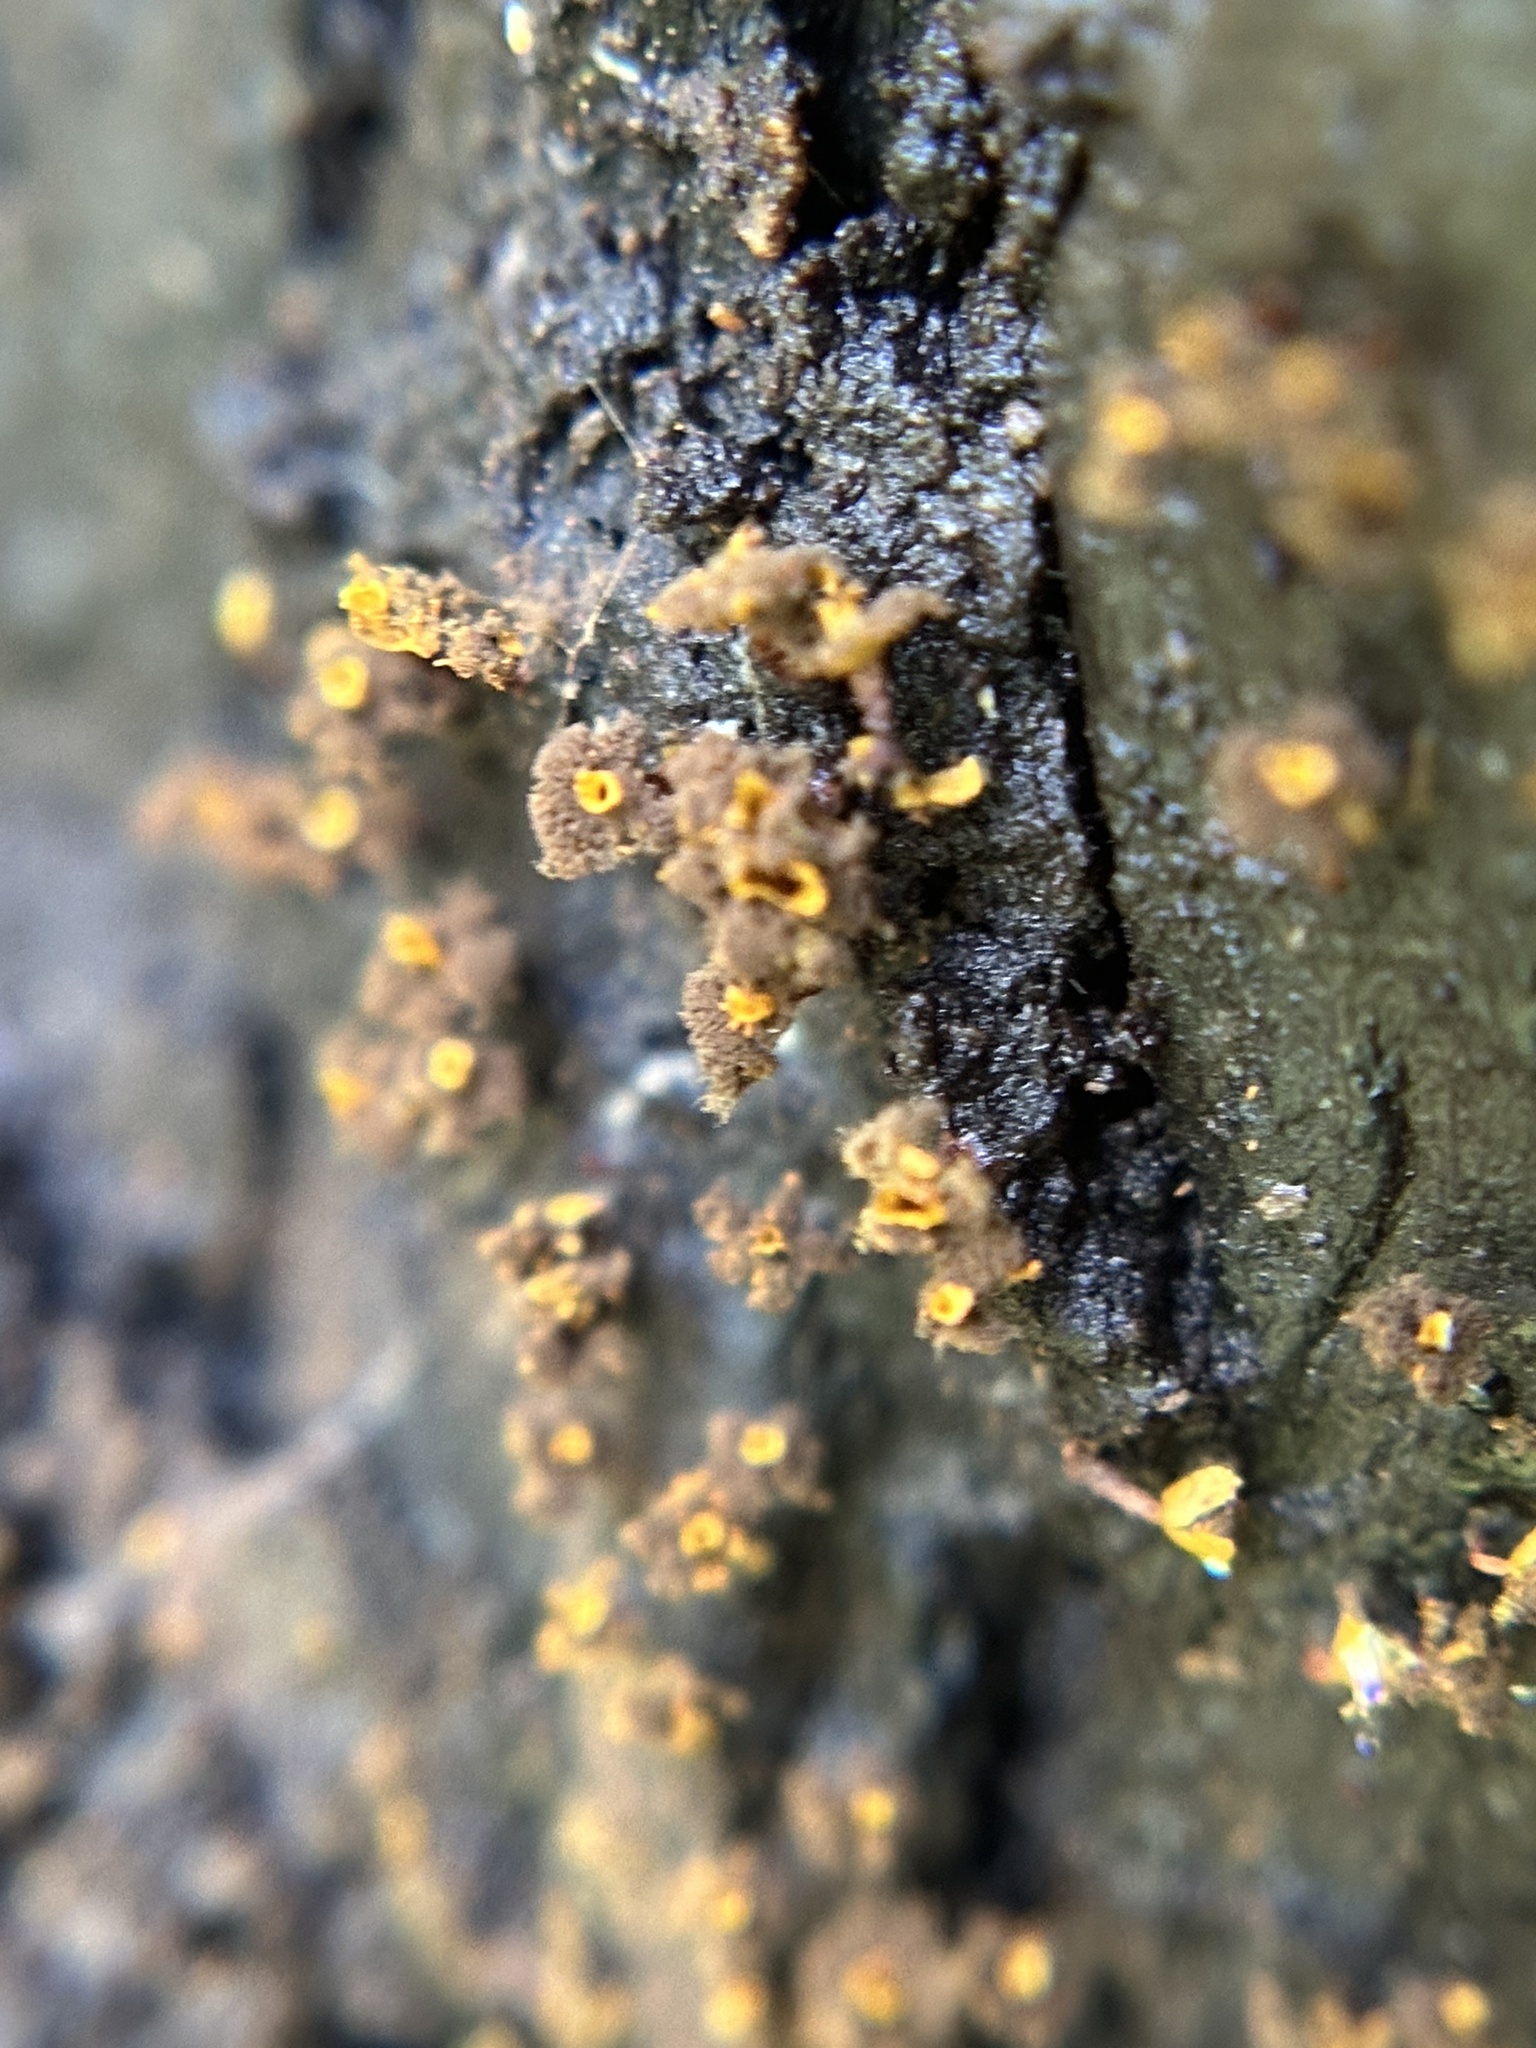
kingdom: Protozoa
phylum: Mycetozoa
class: Myxomycetes
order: Physarales
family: Physaraceae
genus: Physarella
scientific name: Physarella oblonga
